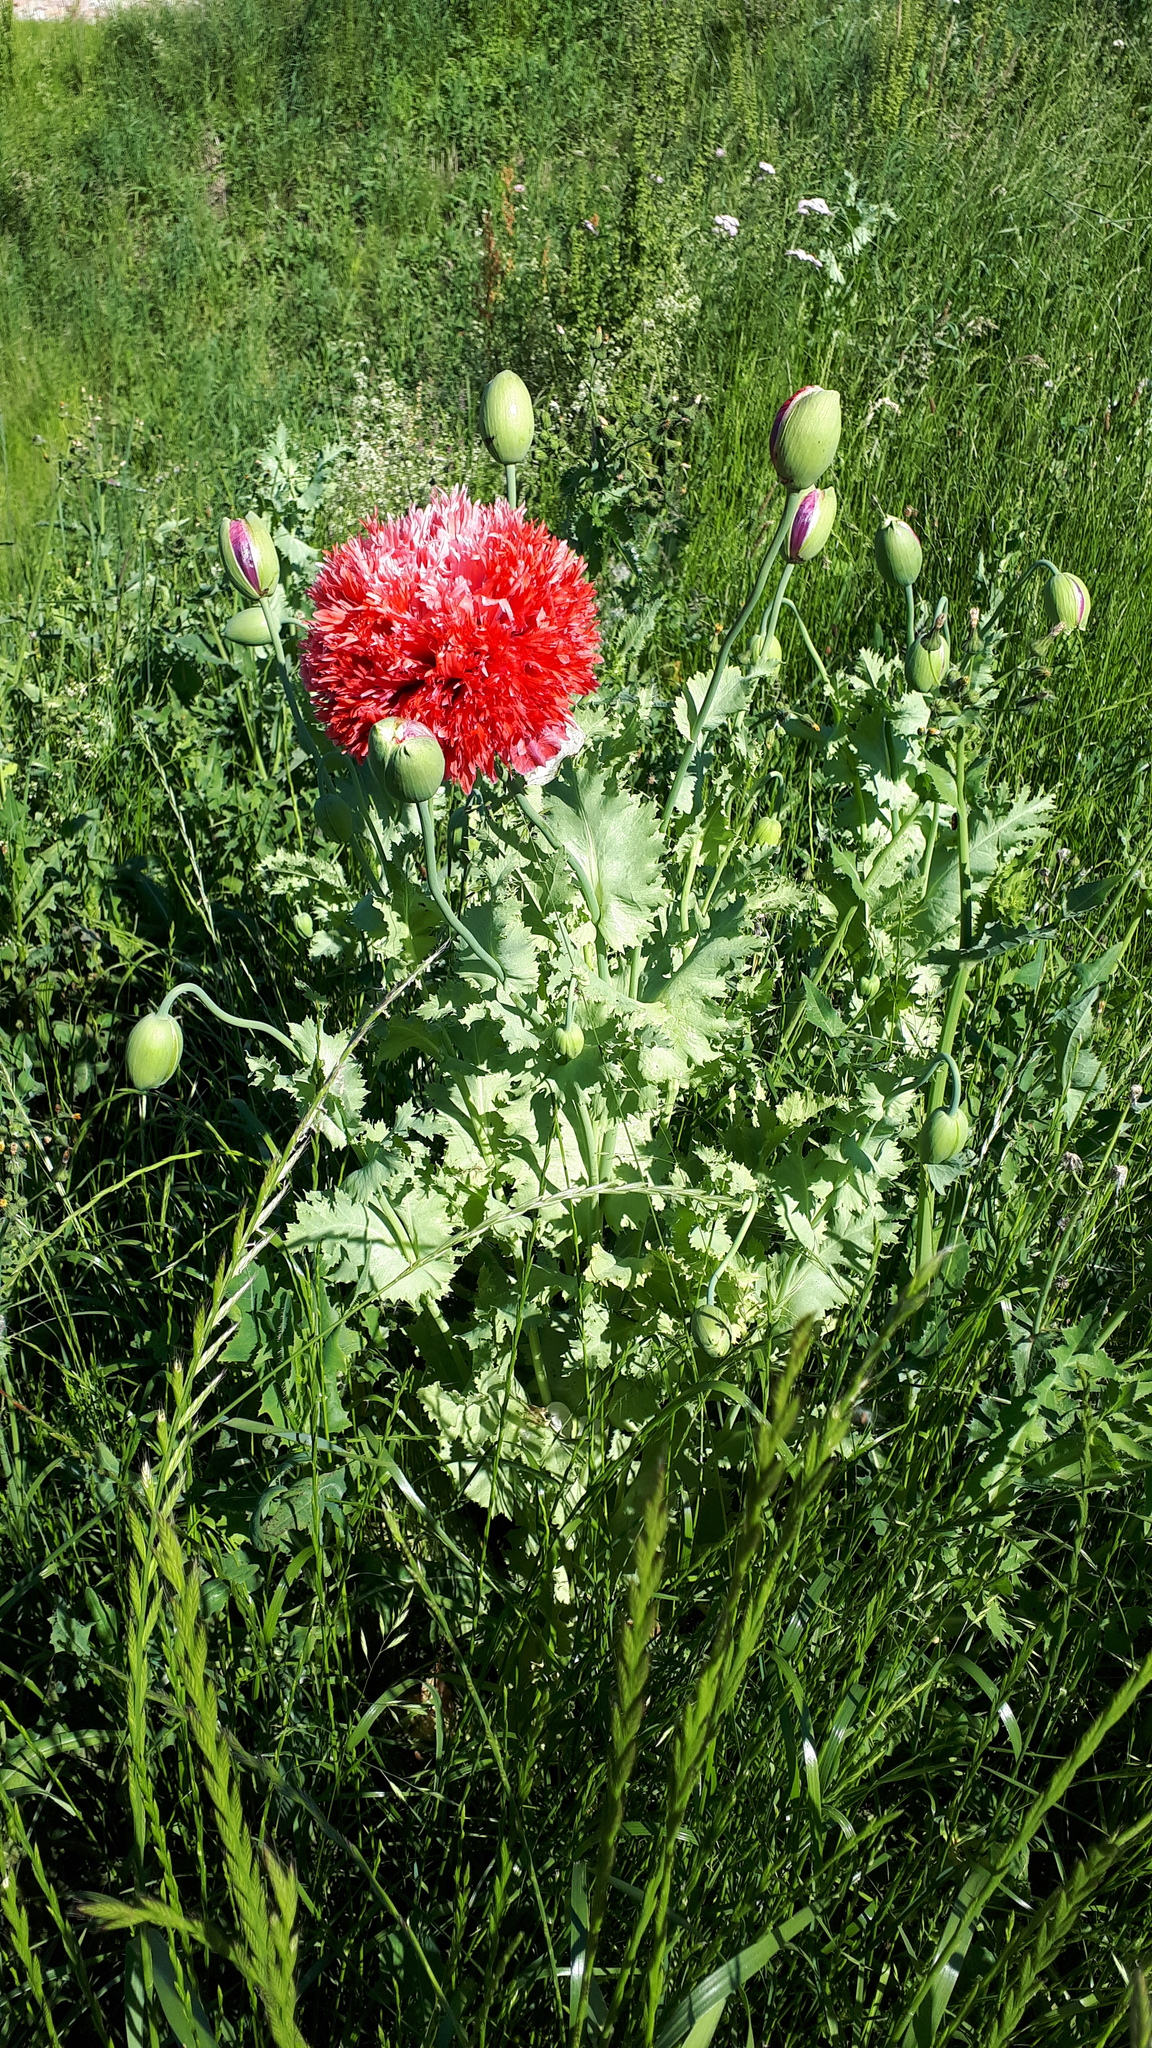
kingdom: Plantae
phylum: Tracheophyta
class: Magnoliopsida
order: Ranunculales
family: Papaveraceae
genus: Papaver
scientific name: Papaver somniferum
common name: Opium poppy
